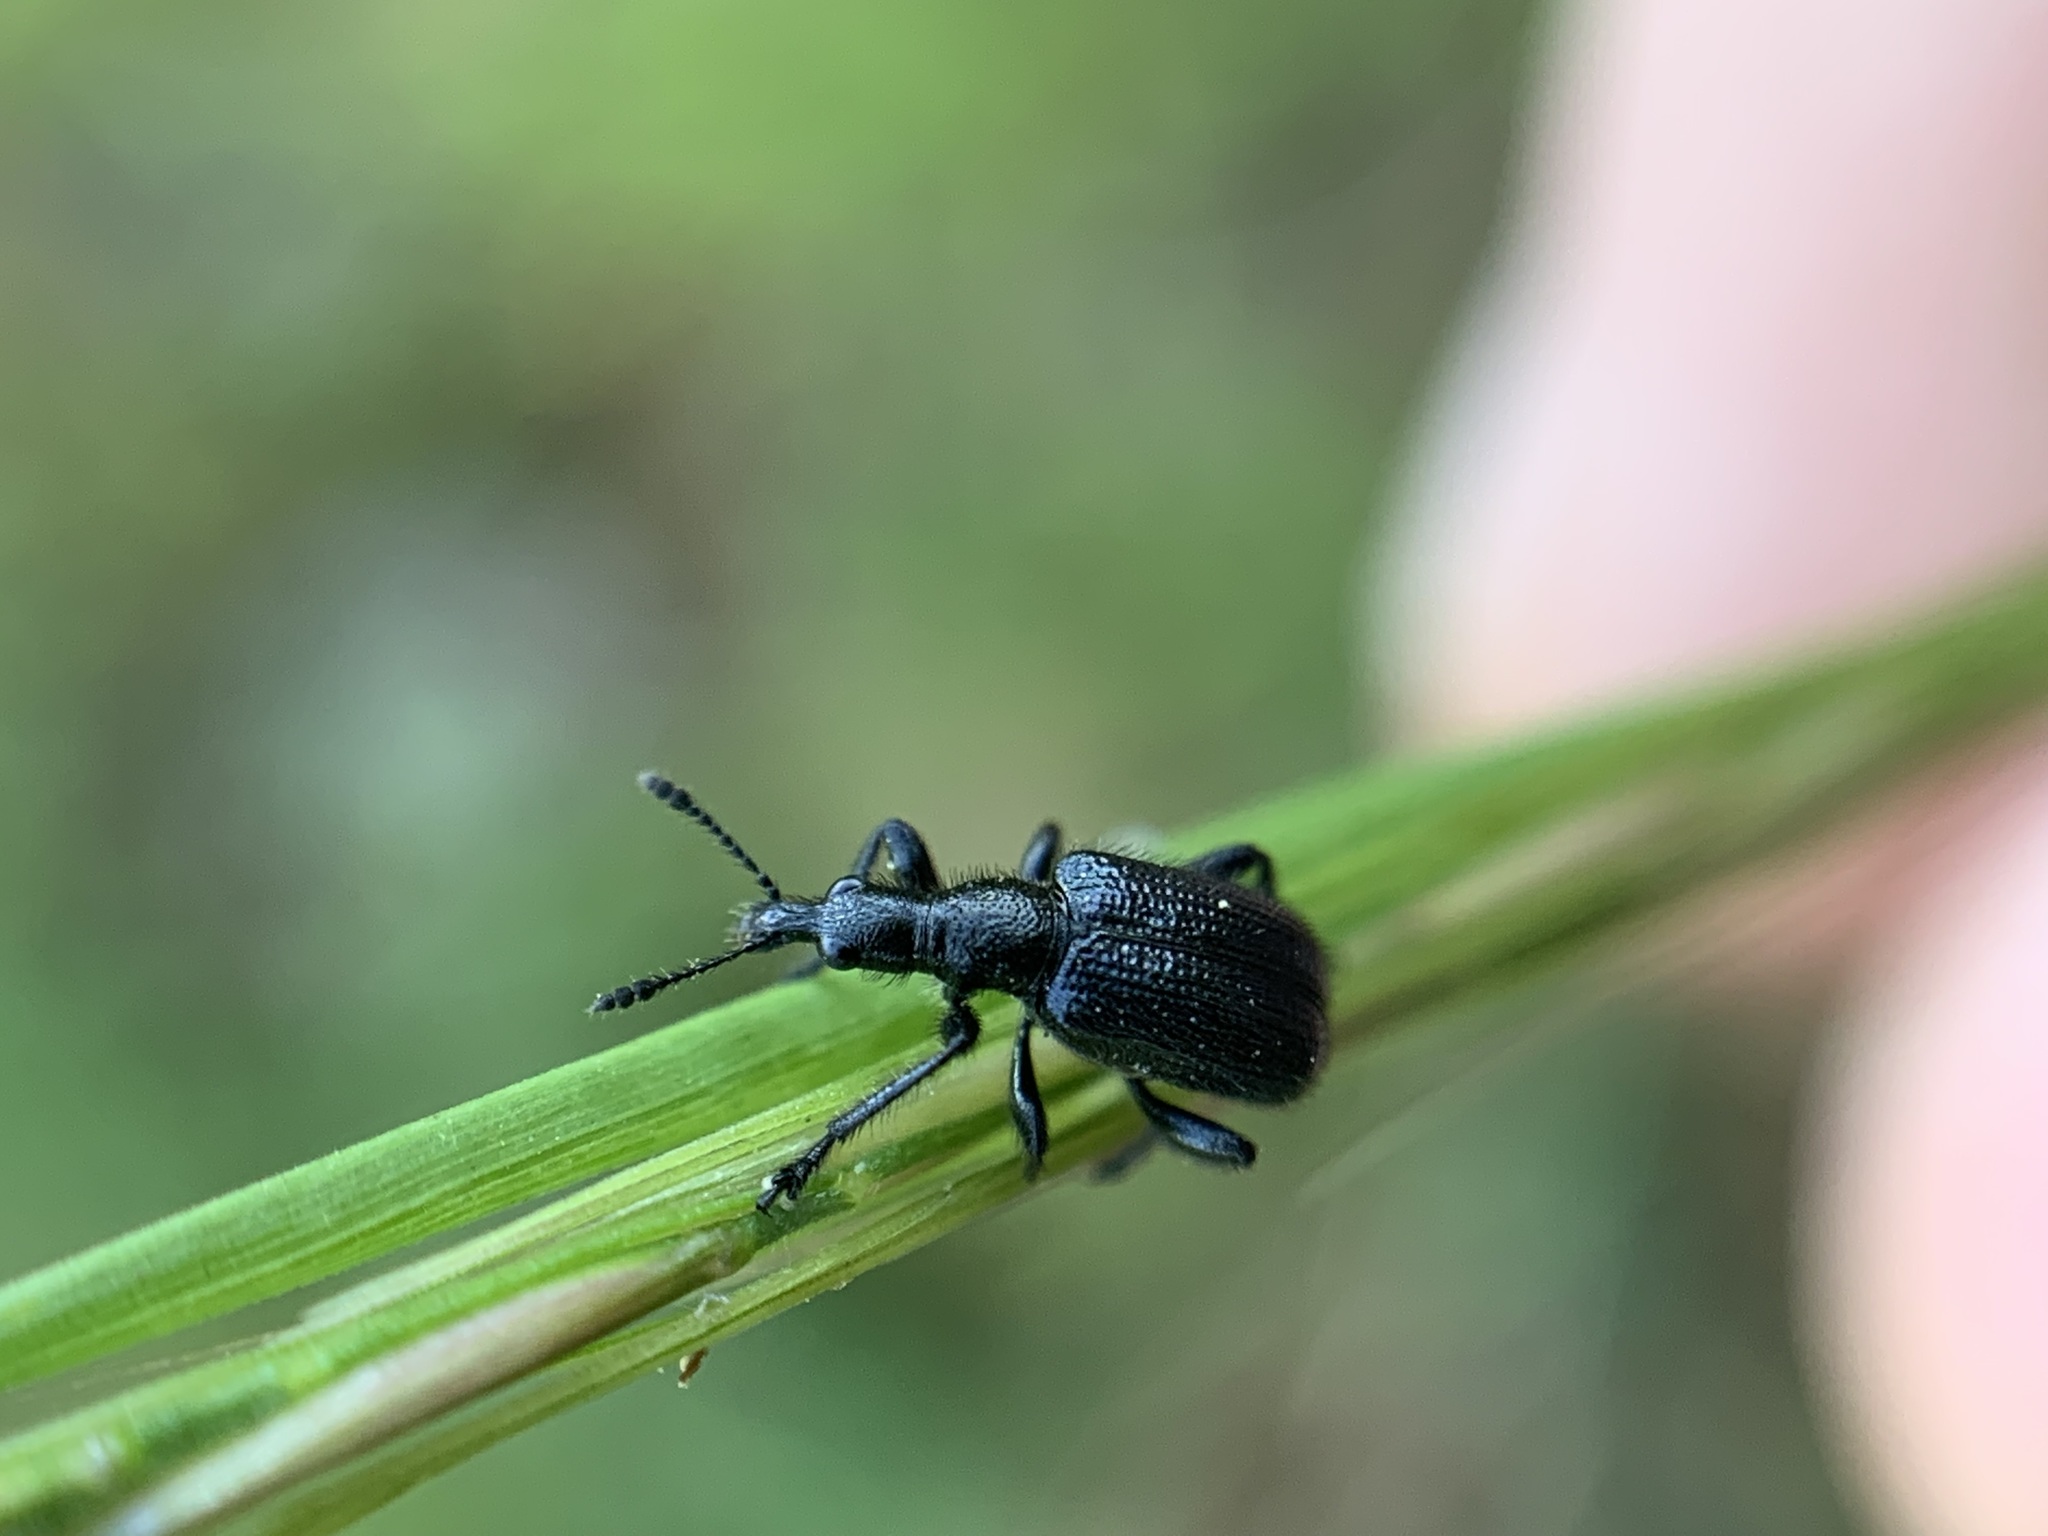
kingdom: Animalia
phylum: Arthropoda
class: Insecta
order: Coleoptera
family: Attelabidae
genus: Deporaus
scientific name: Deporaus glastinus
